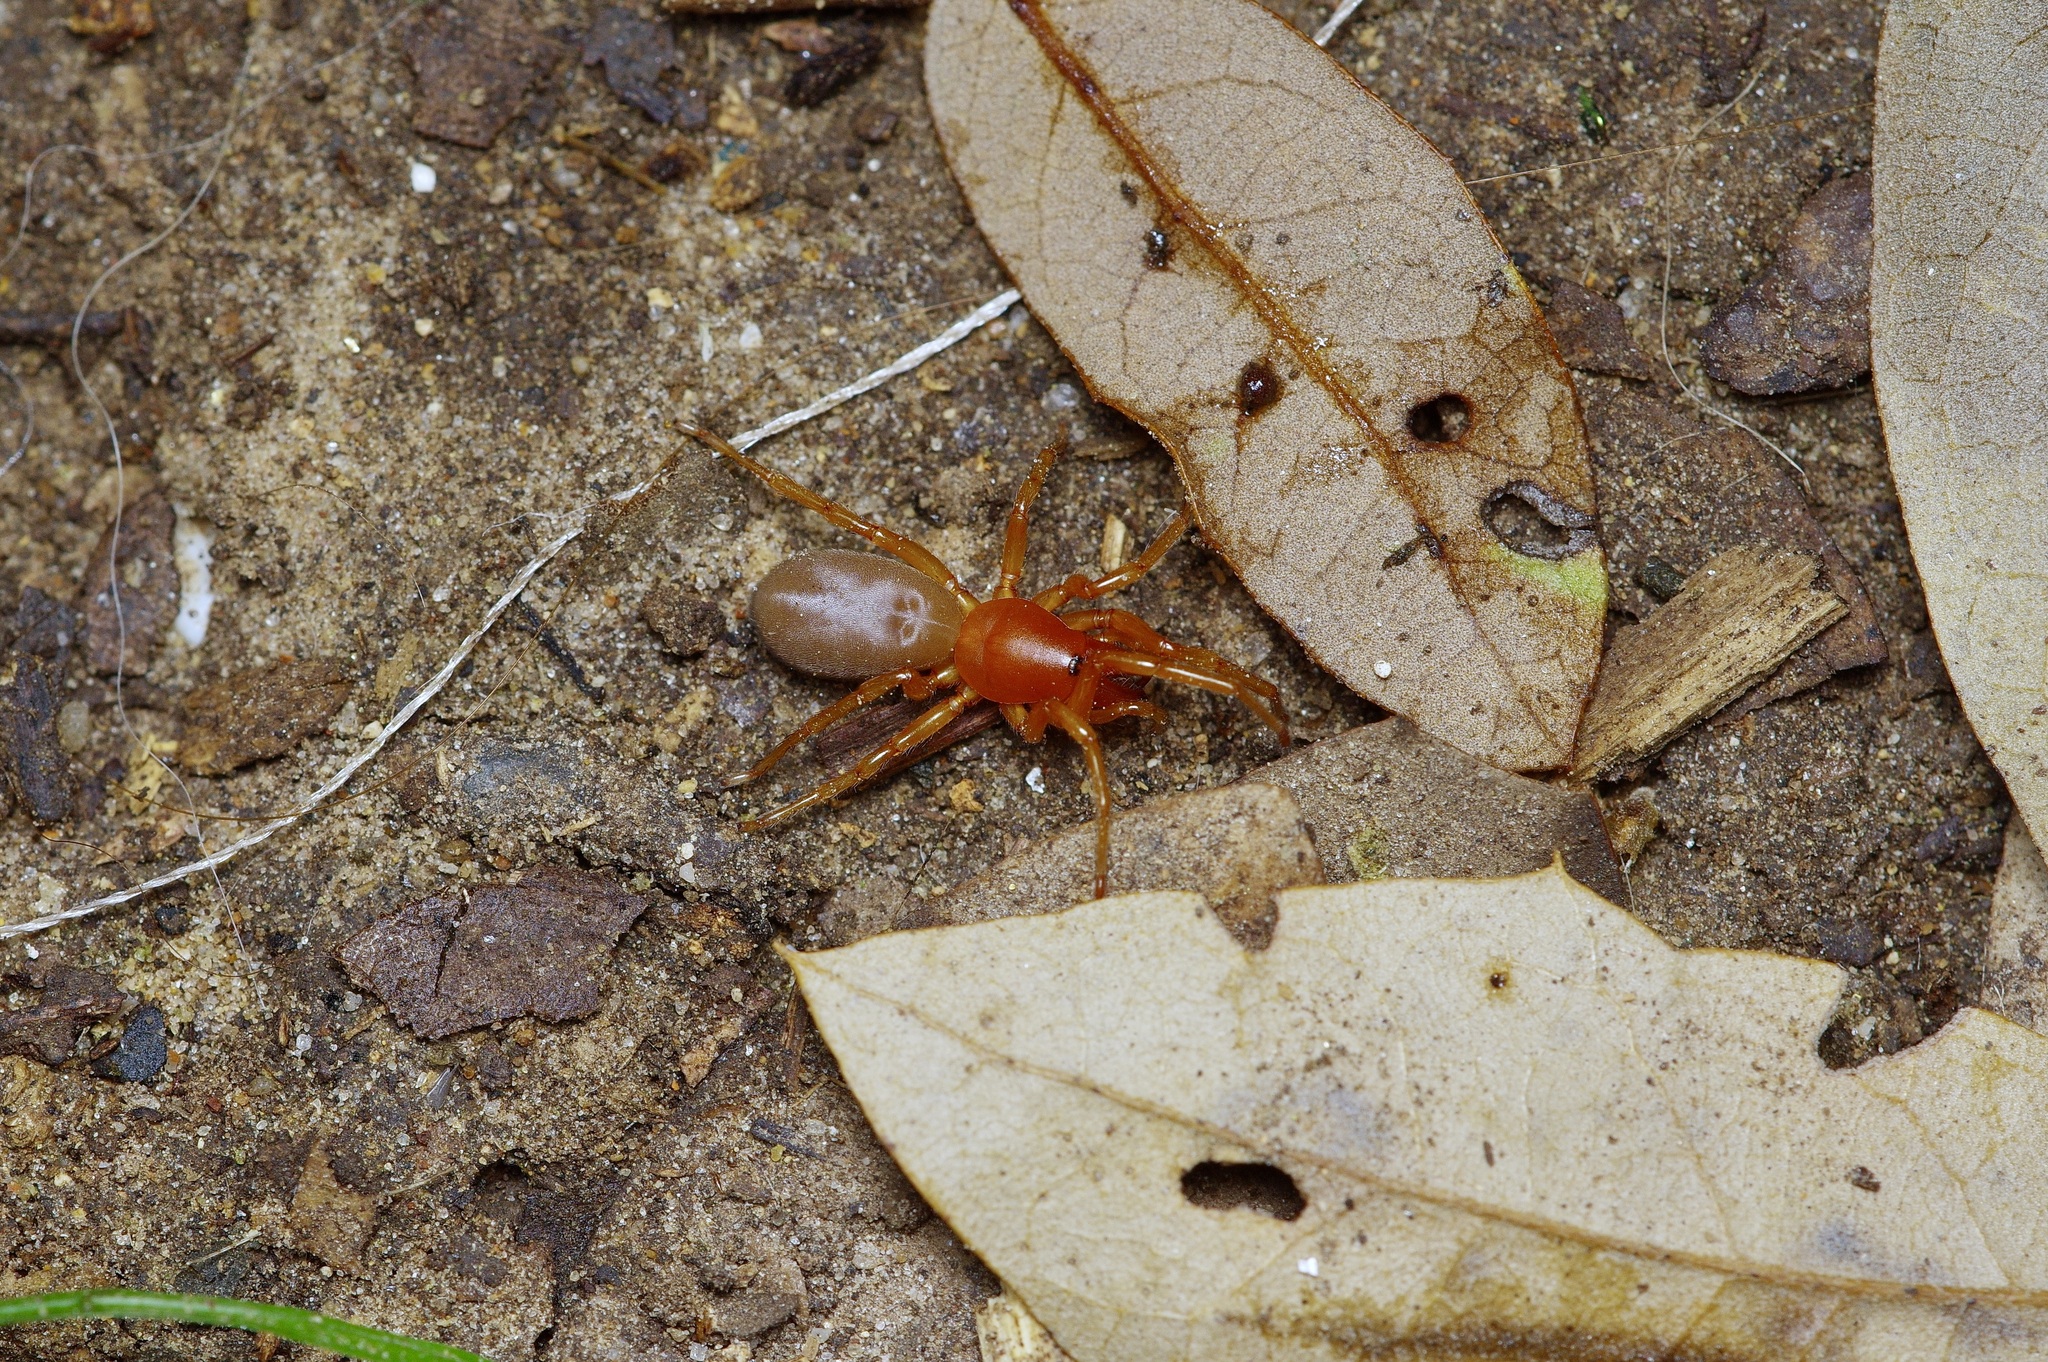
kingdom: Animalia
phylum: Arthropoda
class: Arachnida
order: Araneae
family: Dysderidae
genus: Dysdera
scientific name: Dysdera crocata
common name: Woodlouse spider
